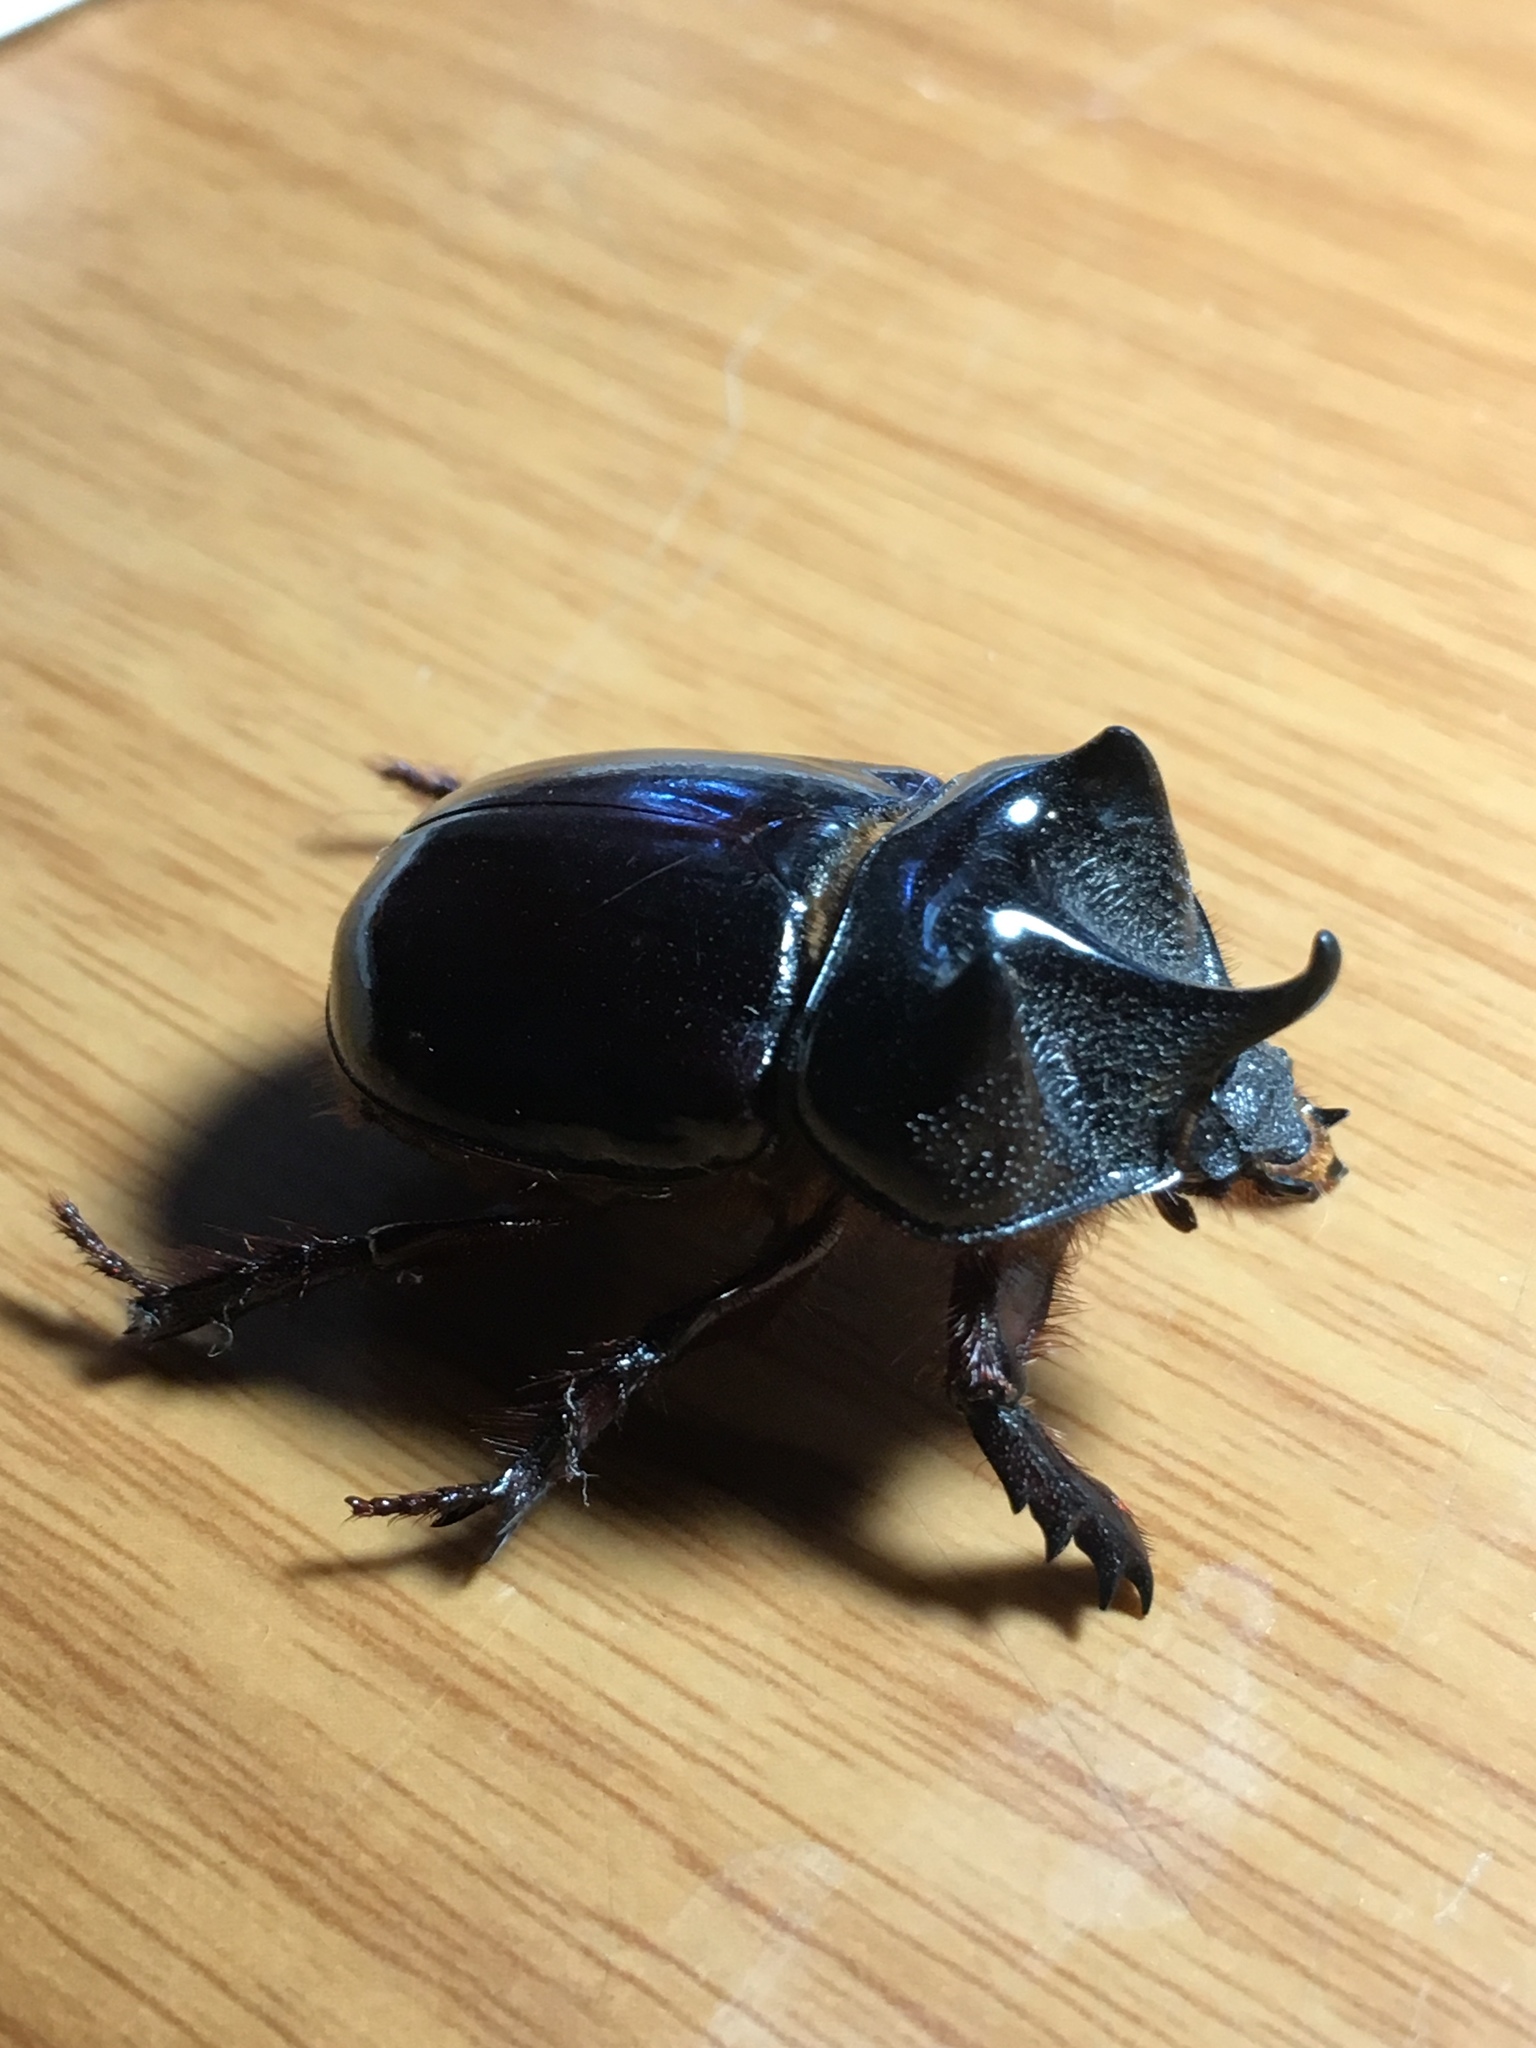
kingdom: Animalia
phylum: Arthropoda
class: Insecta
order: Coleoptera
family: Scarabaeidae
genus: Strategus
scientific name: Strategus antaeus
